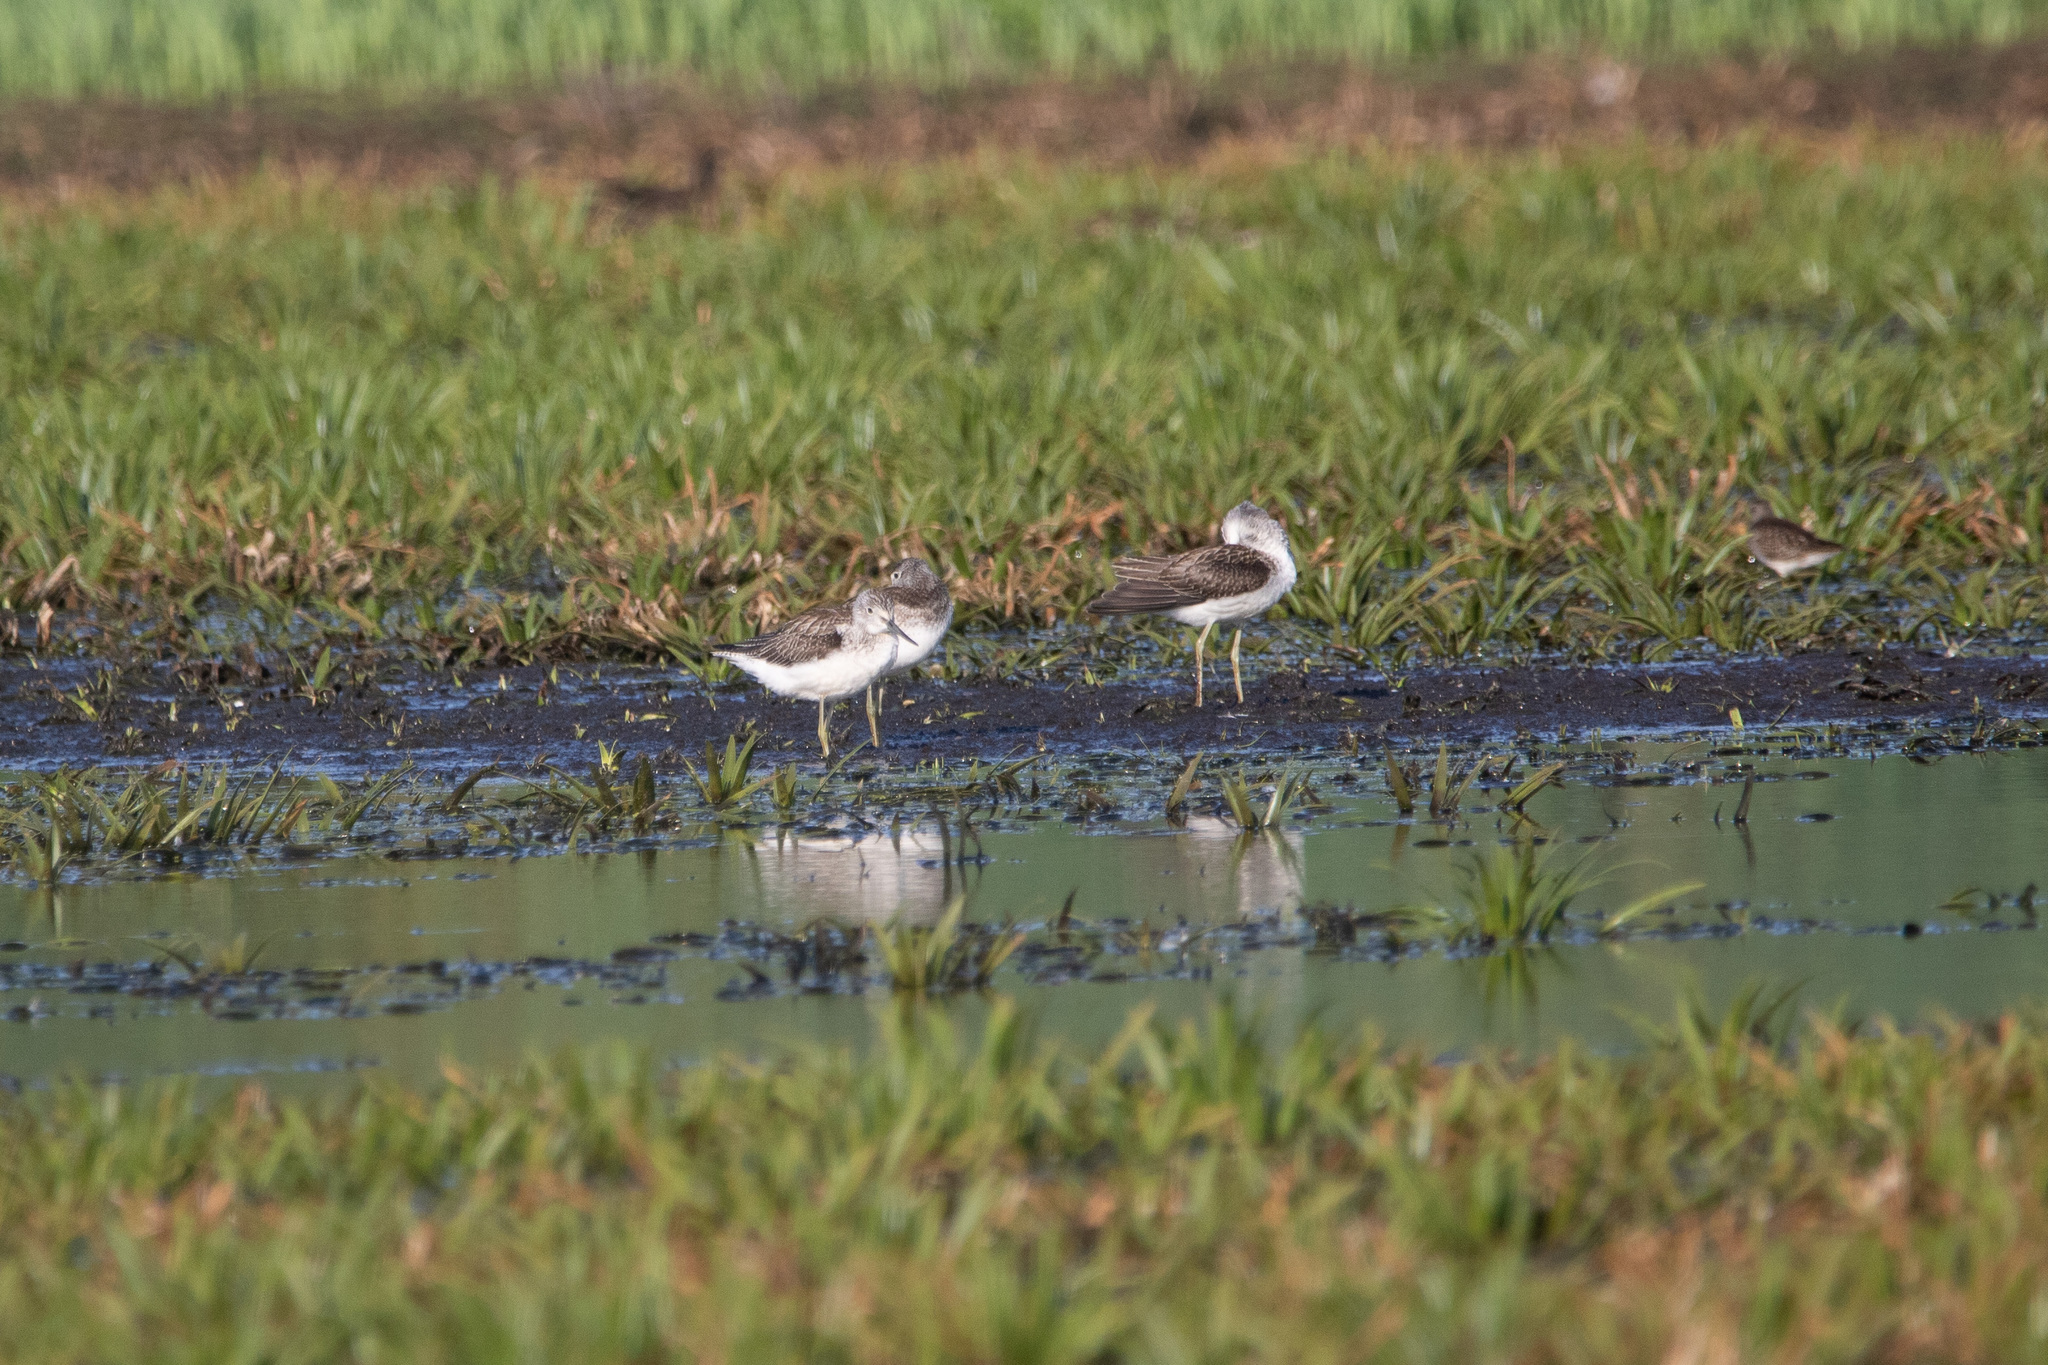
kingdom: Animalia
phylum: Chordata
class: Aves
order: Charadriiformes
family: Scolopacidae
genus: Tringa
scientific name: Tringa nebularia
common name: Common greenshank
